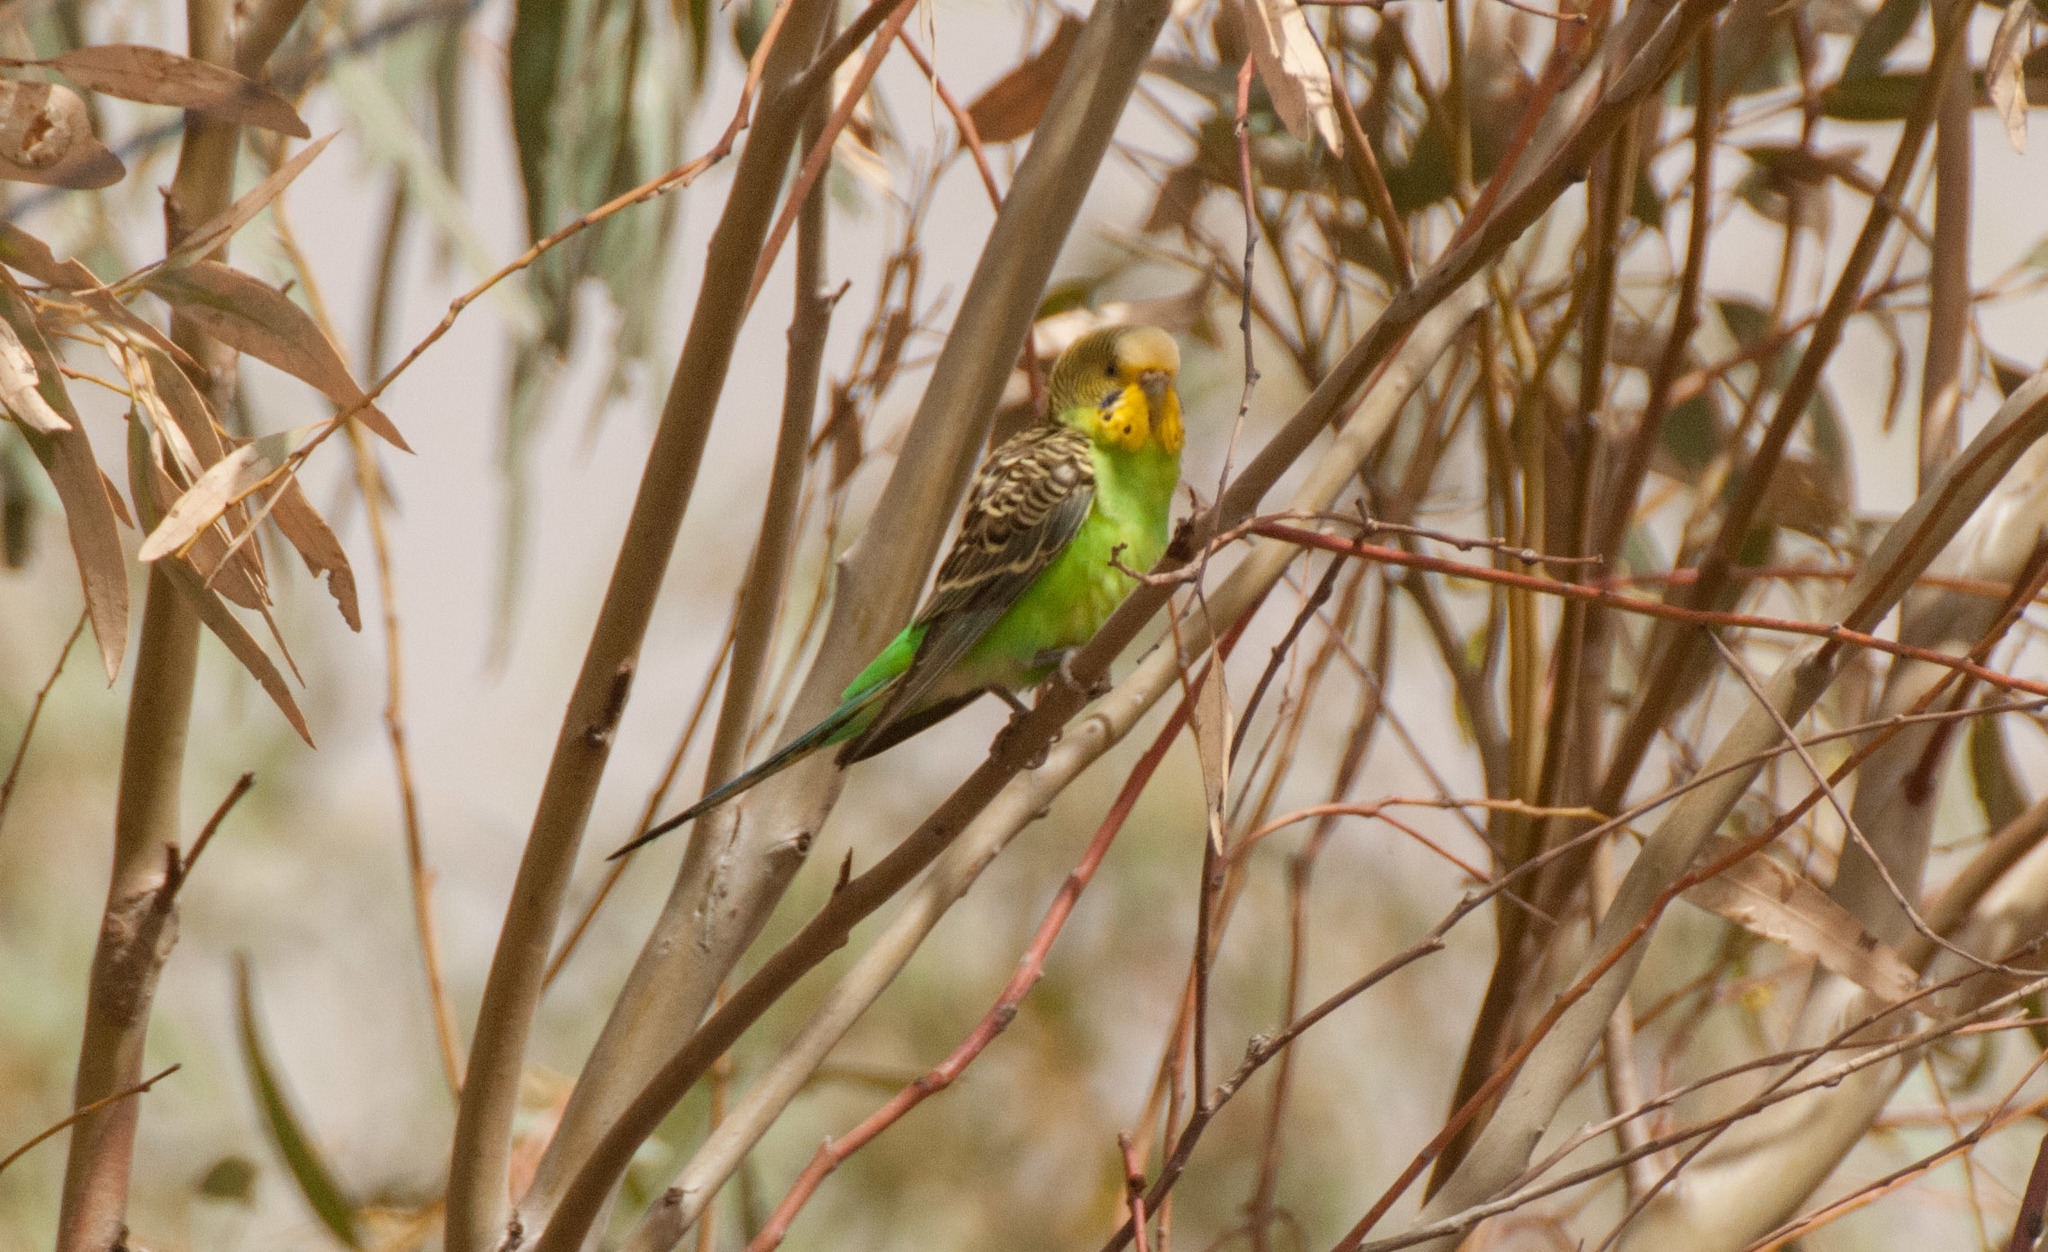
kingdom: Animalia
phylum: Chordata
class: Aves
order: Psittaciformes
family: Psittacidae
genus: Melopsittacus
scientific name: Melopsittacus undulatus
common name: Budgerigar
